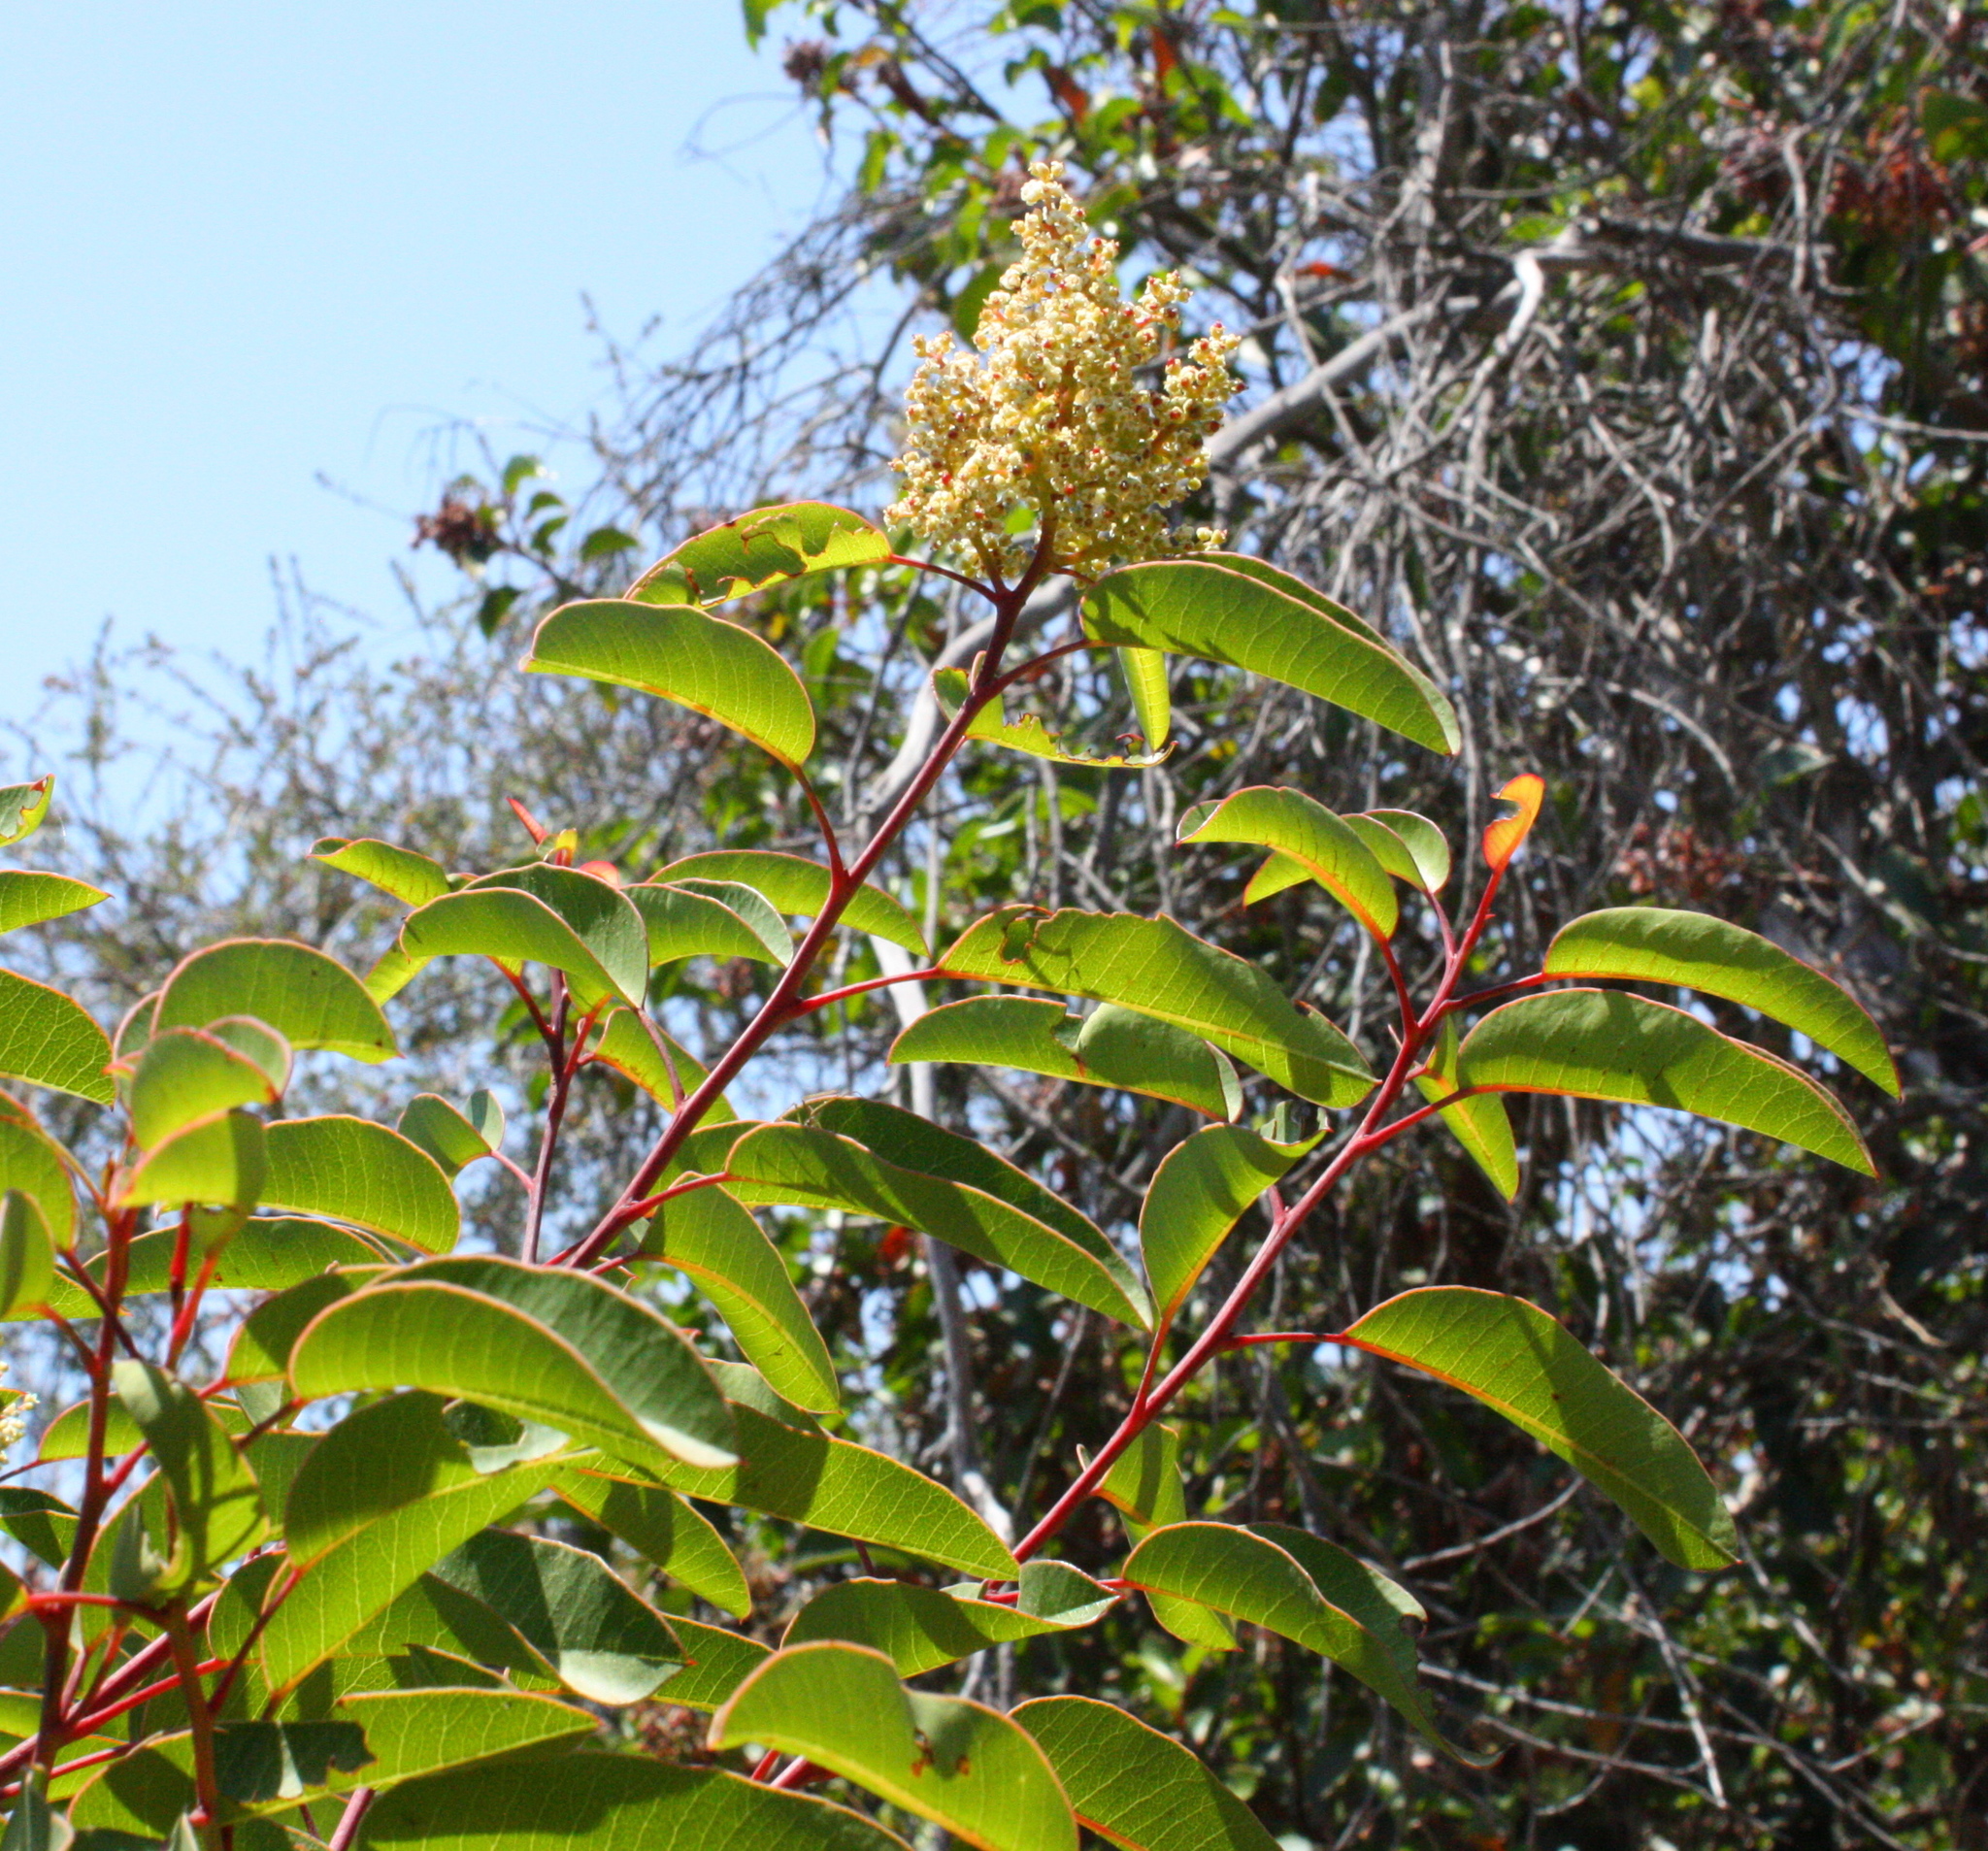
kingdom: Plantae
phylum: Tracheophyta
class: Magnoliopsida
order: Sapindales
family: Anacardiaceae
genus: Malosma
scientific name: Malosma laurina
